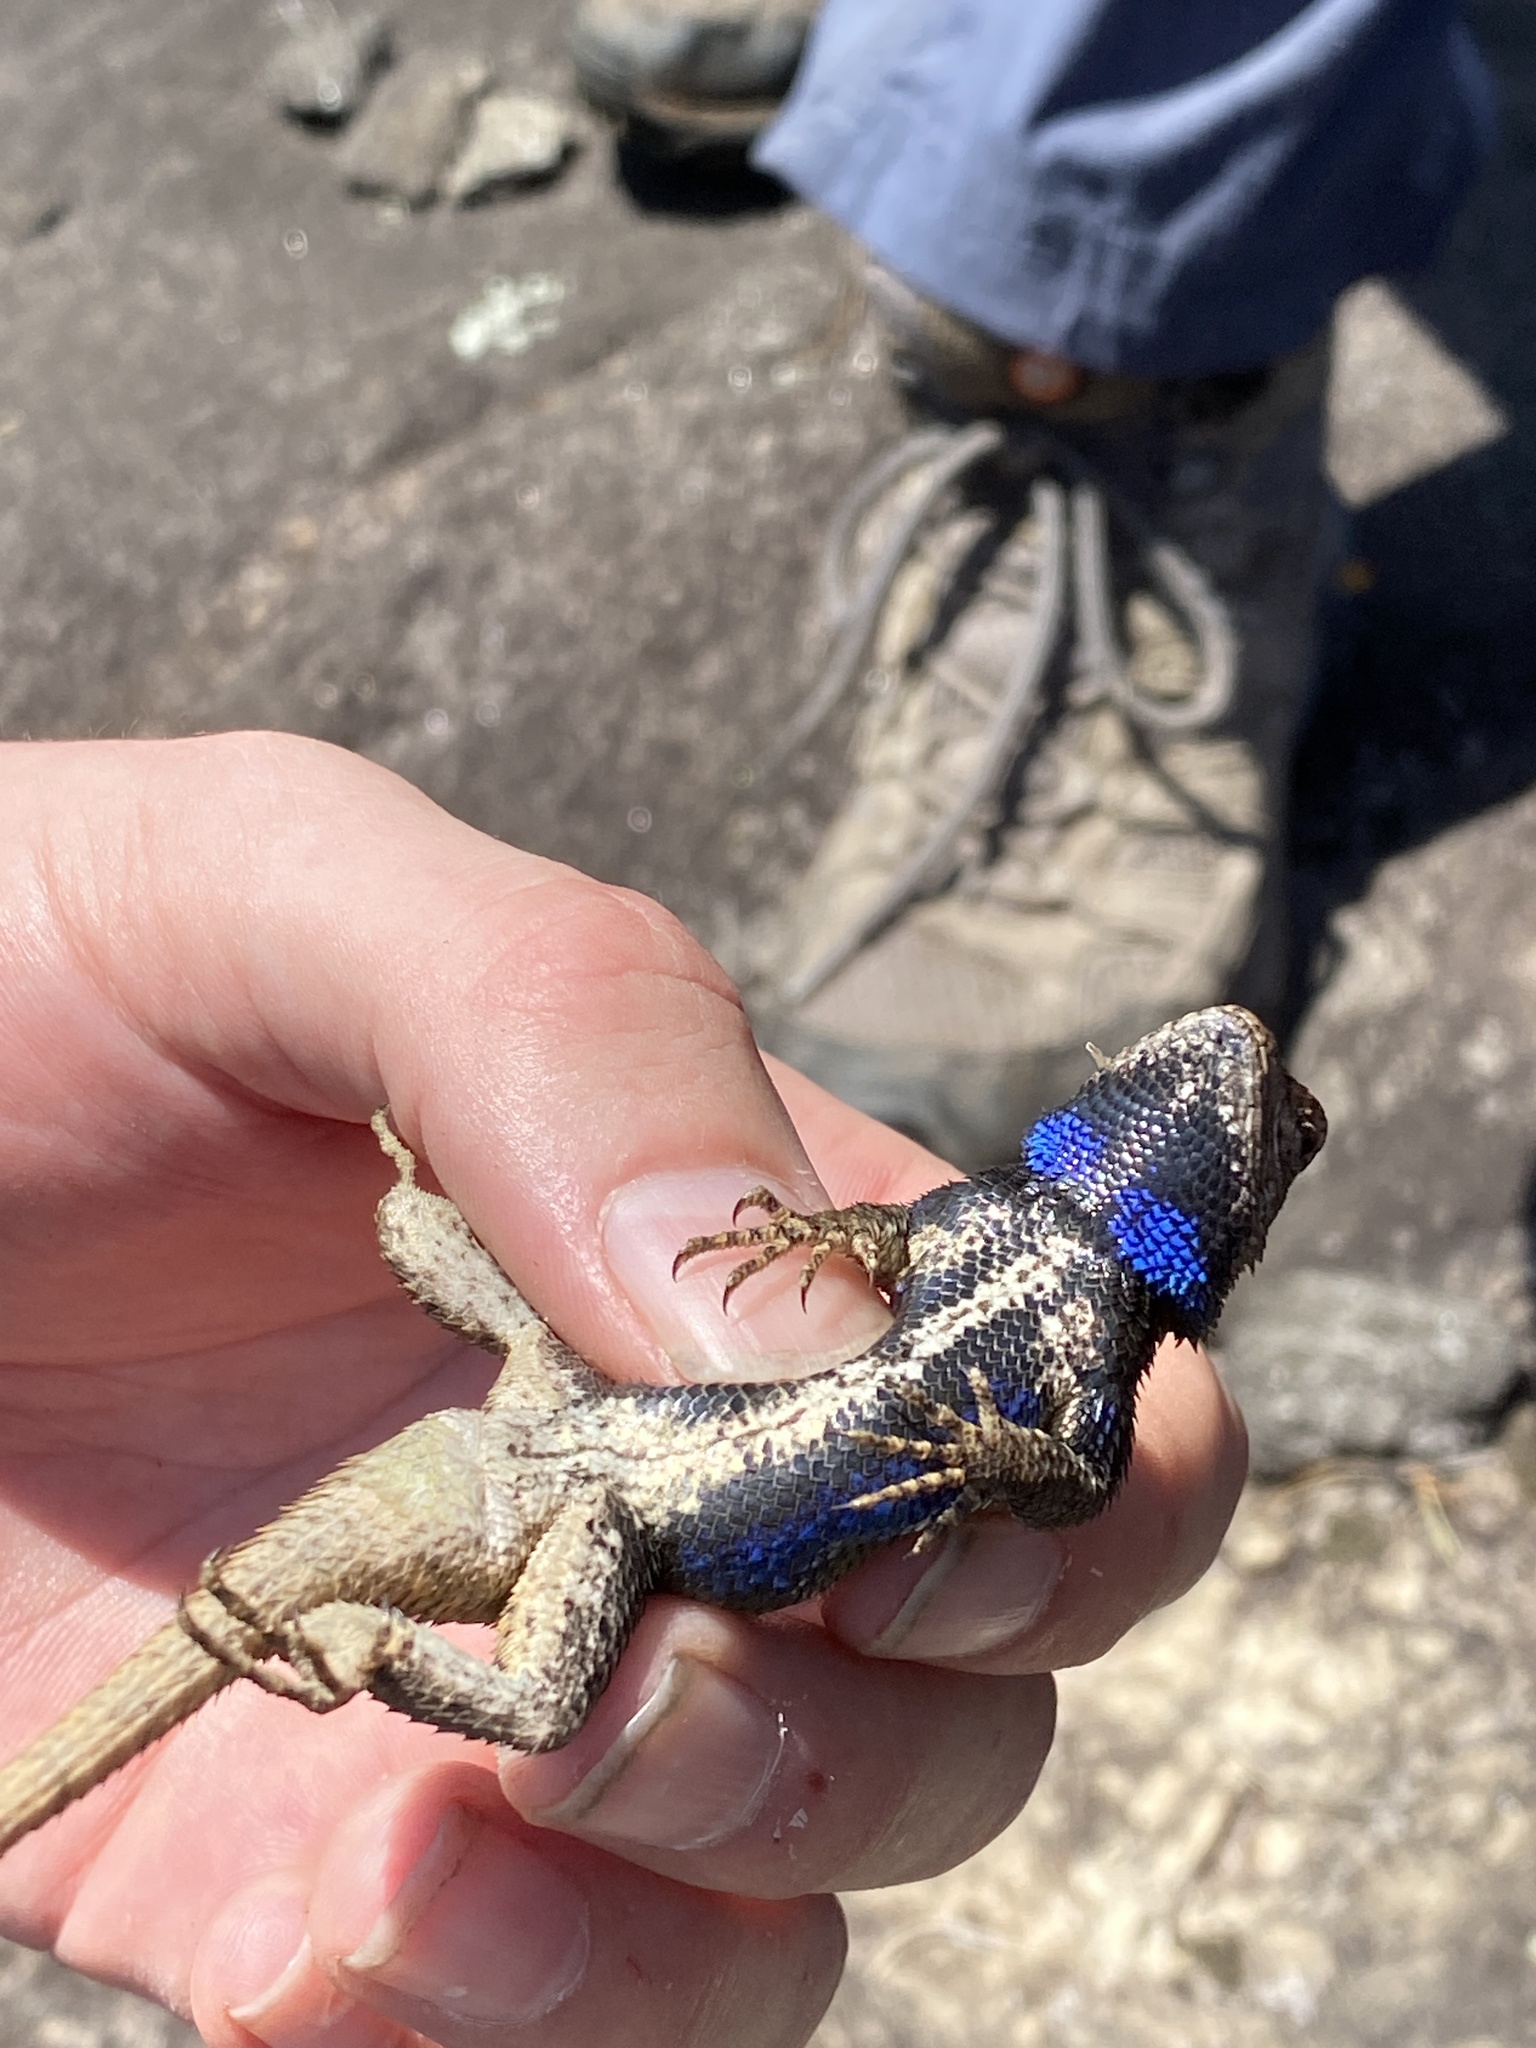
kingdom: Animalia
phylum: Chordata
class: Squamata
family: Phrynosomatidae
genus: Sceloporus
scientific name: Sceloporus undulatus
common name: Eastern fence lizard
